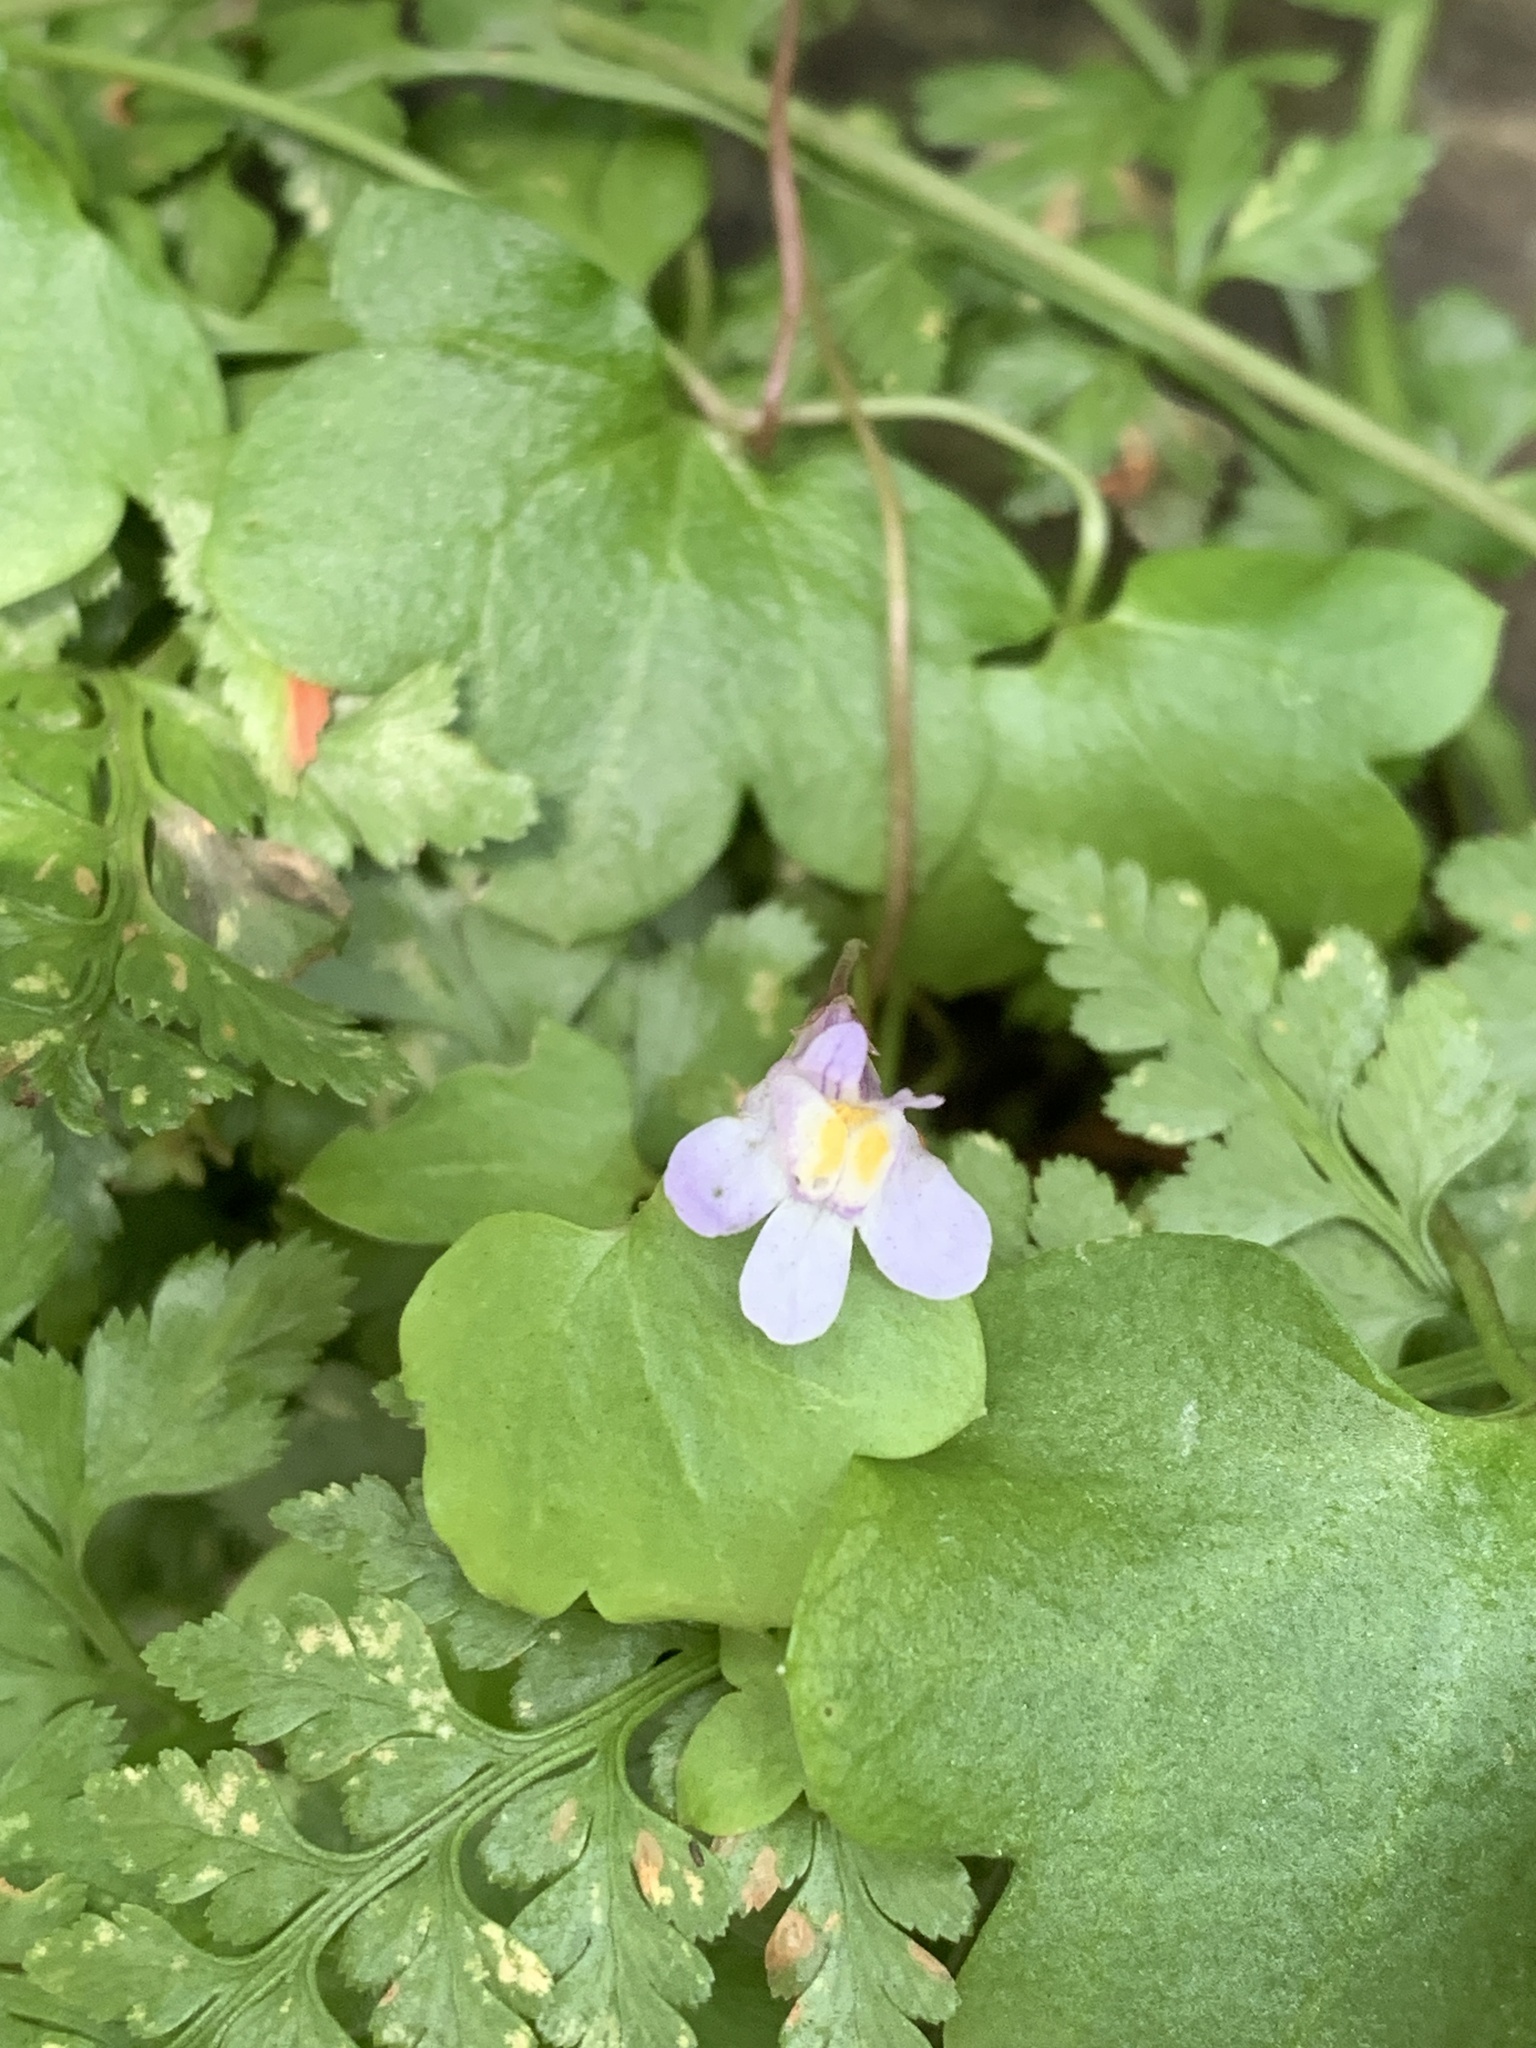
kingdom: Plantae
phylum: Tracheophyta
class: Magnoliopsida
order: Lamiales
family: Plantaginaceae
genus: Cymbalaria
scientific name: Cymbalaria muralis
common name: Ivy-leaved toadflax
